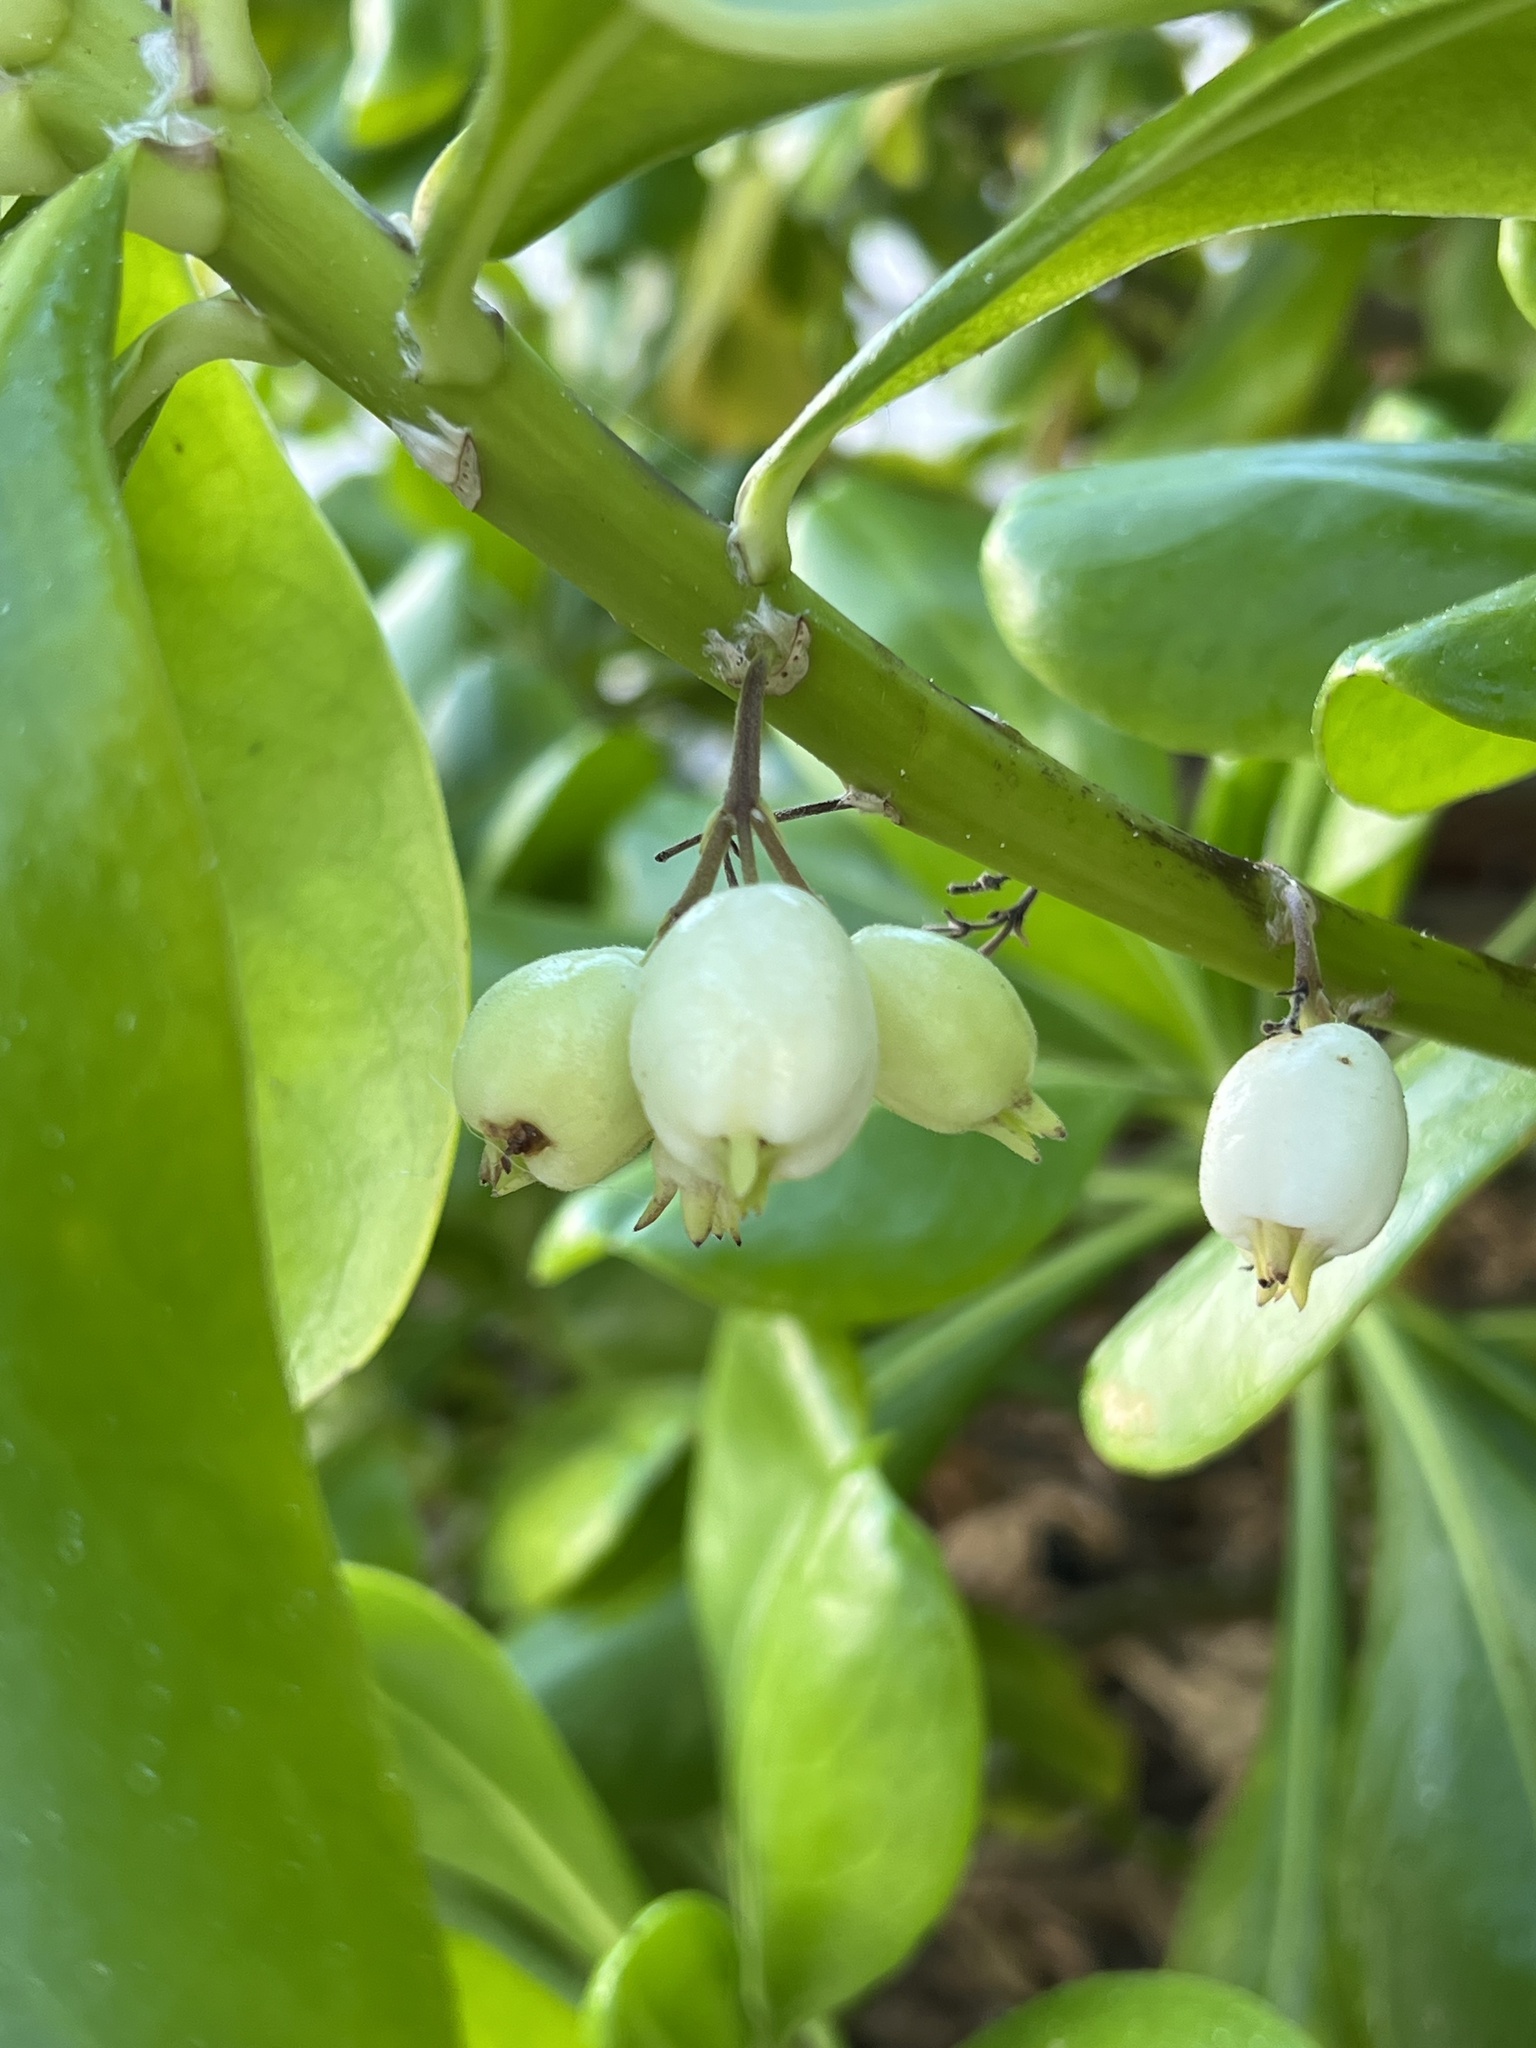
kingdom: Plantae
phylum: Tracheophyta
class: Magnoliopsida
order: Asterales
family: Goodeniaceae
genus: Scaevola
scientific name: Scaevola taccada
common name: Sea lettucetree
